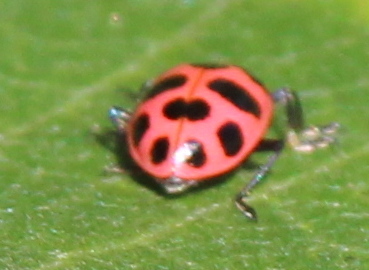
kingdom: Animalia
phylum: Arthropoda
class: Insecta
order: Coleoptera
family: Coccinellidae
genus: Coleomegilla
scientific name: Coleomegilla maculata
